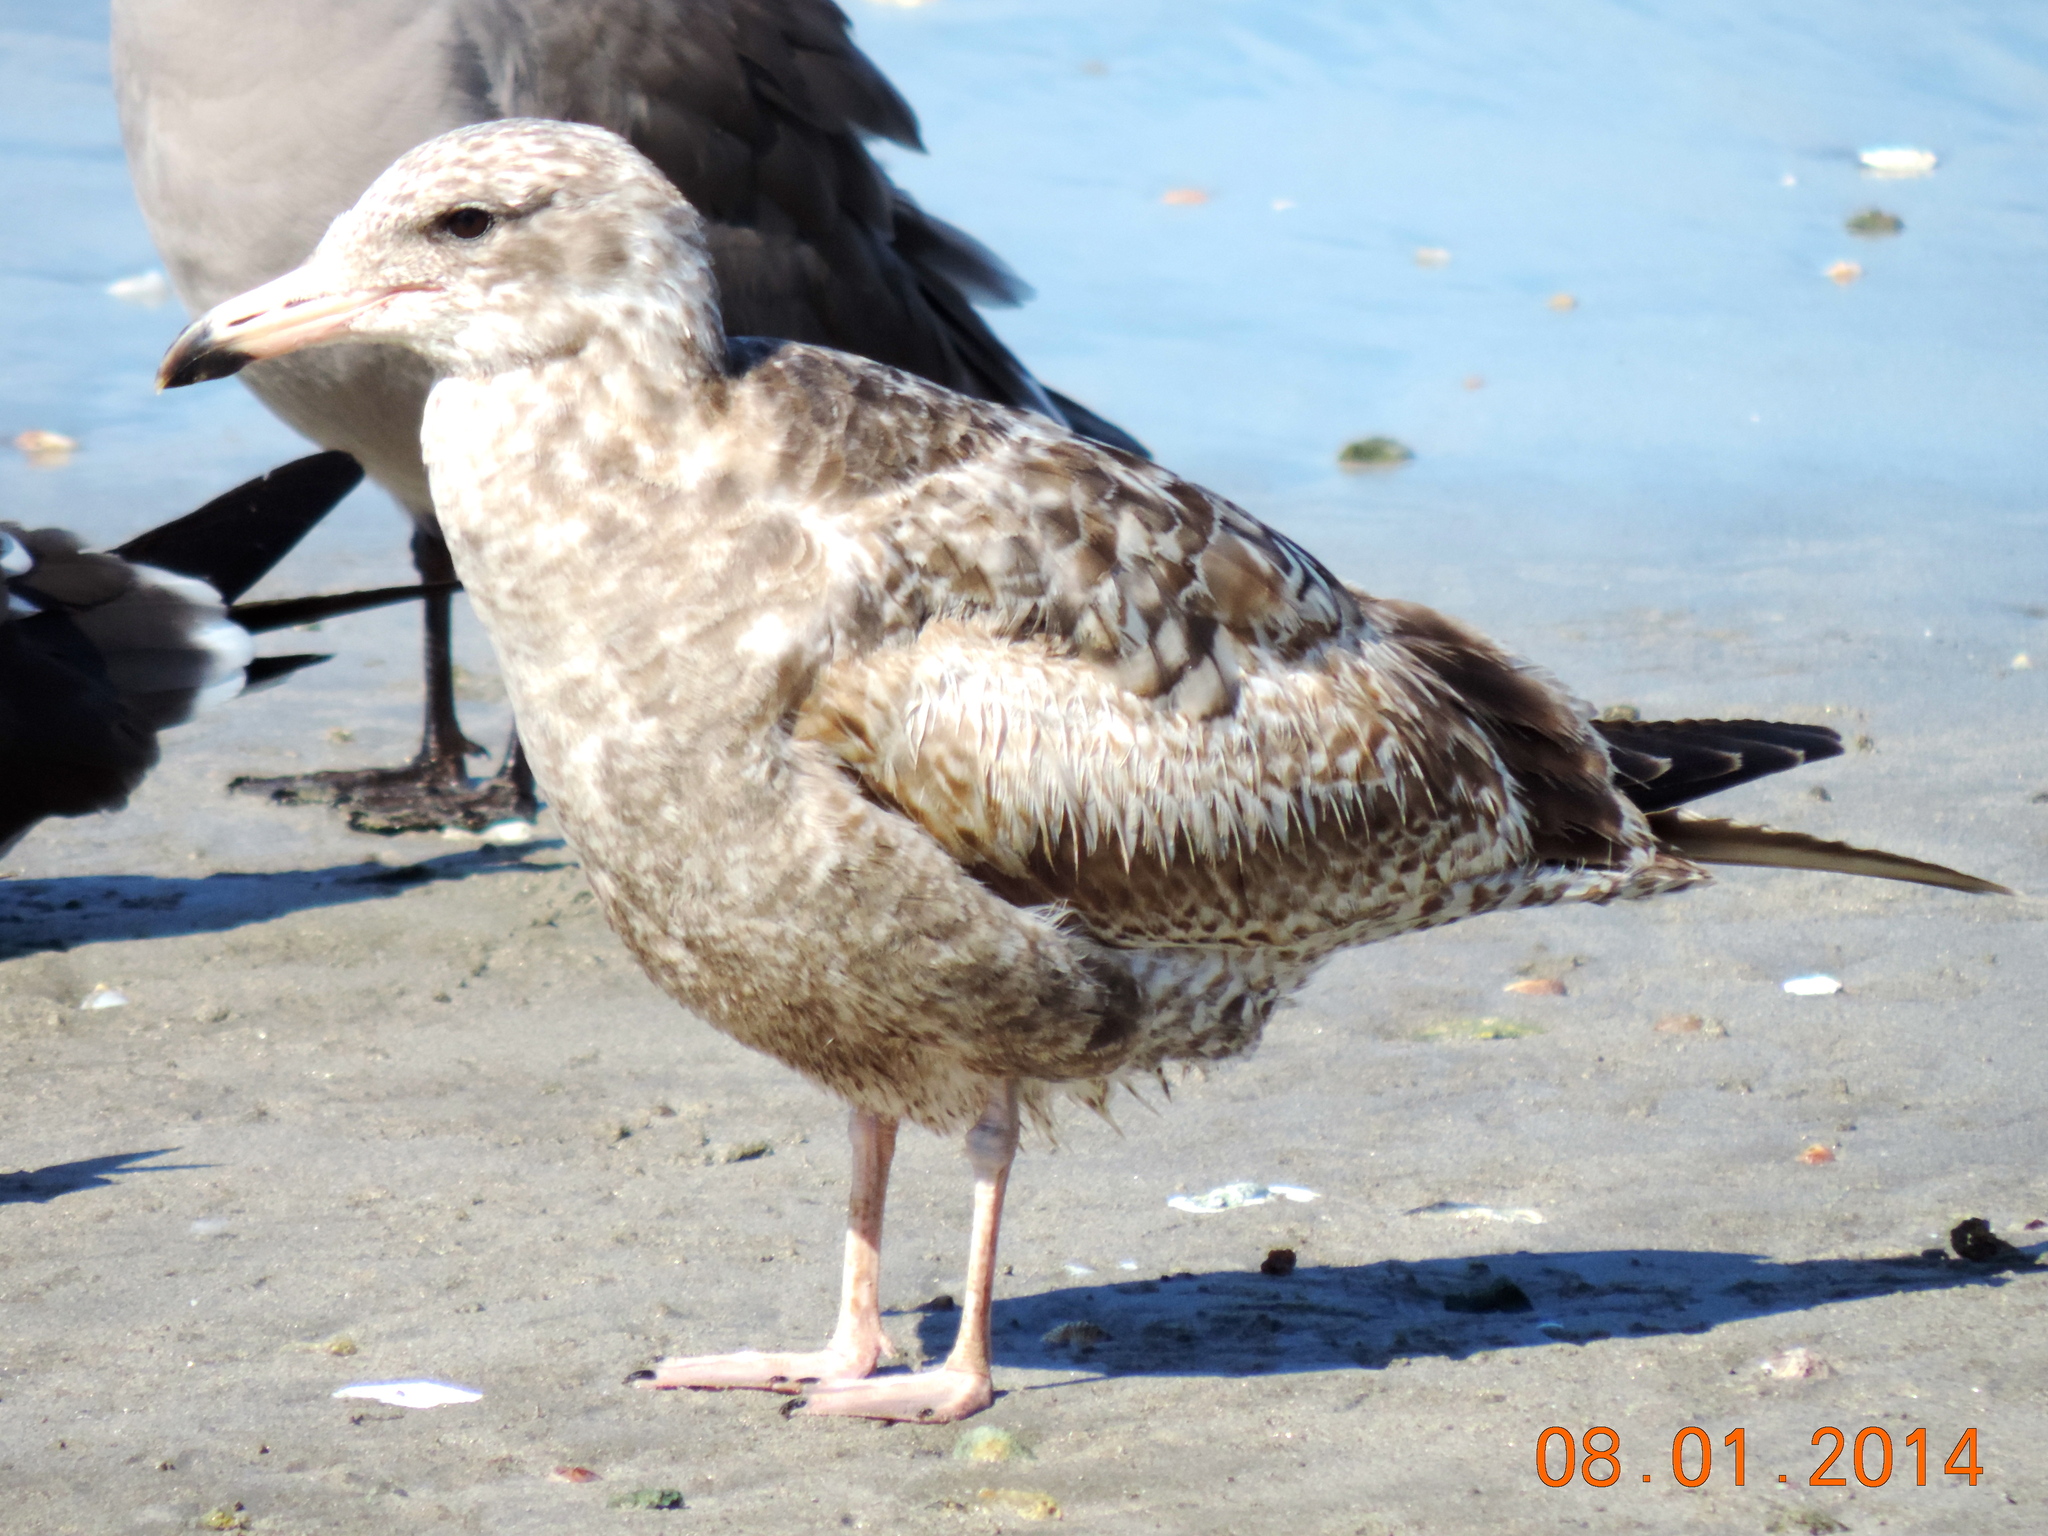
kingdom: Animalia
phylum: Chordata
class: Aves
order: Charadriiformes
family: Laridae
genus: Larus
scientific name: Larus californicus
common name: California gull
